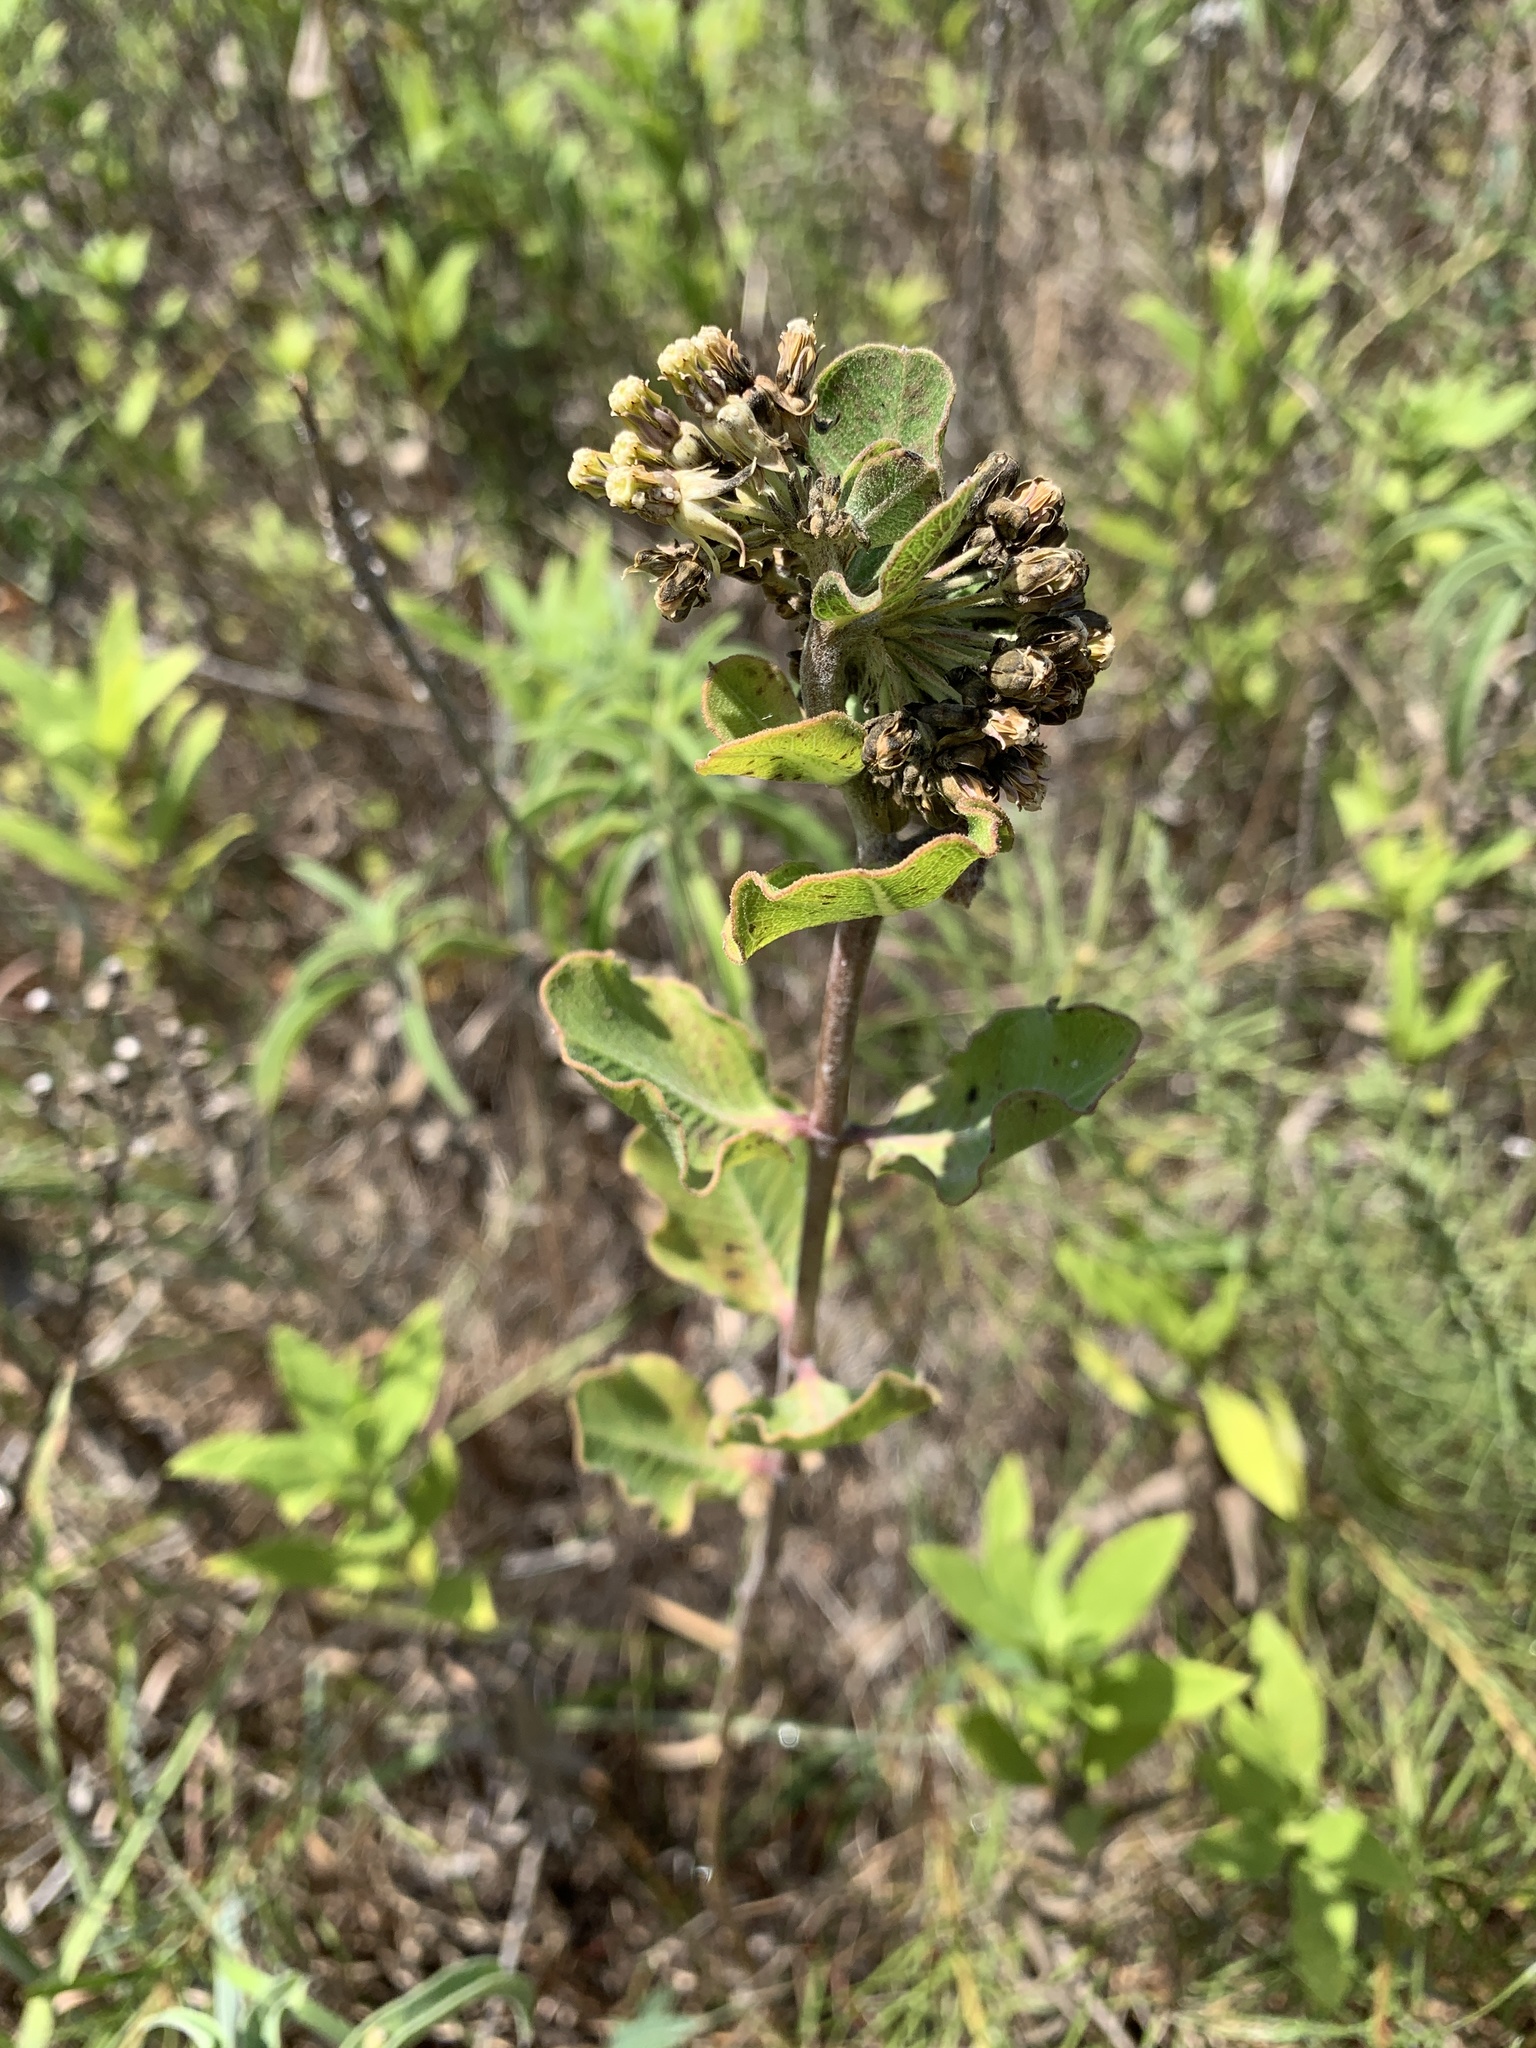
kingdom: Plantae
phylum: Tracheophyta
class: Magnoliopsida
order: Gentianales
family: Apocynaceae
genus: Asclepias
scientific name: Asclepias viridiflora
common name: Green comet milkweed
